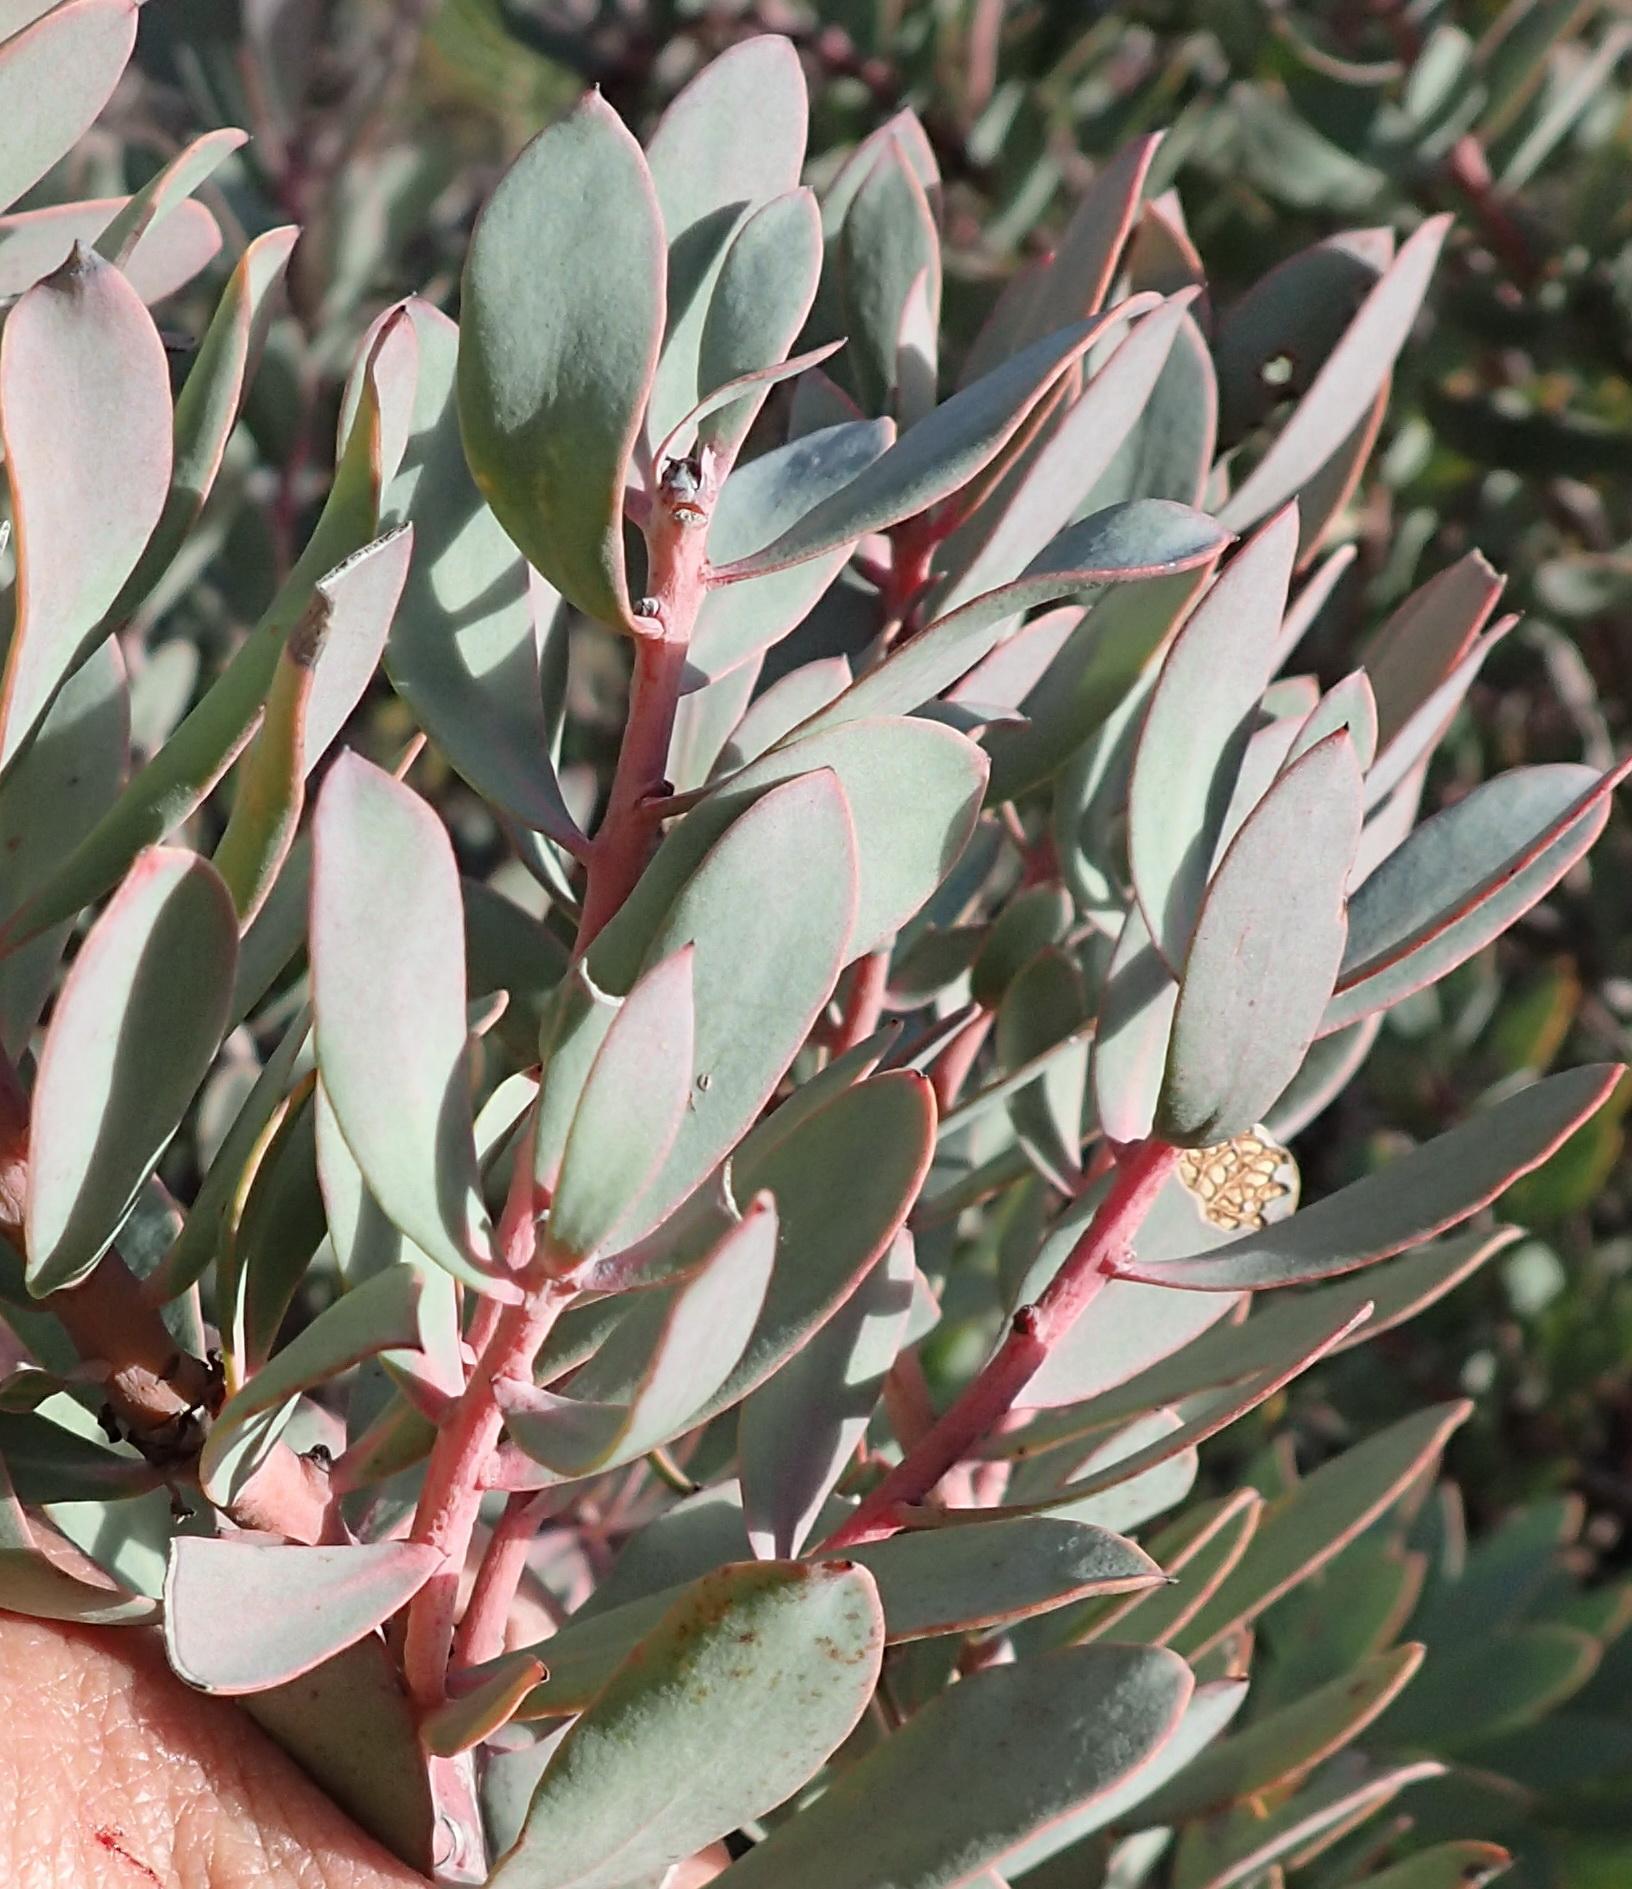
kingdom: Plantae
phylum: Tracheophyta
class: Magnoliopsida
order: Proteales
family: Proteaceae
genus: Protea
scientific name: Protea sulphurea
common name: Sulphur sugarbush
